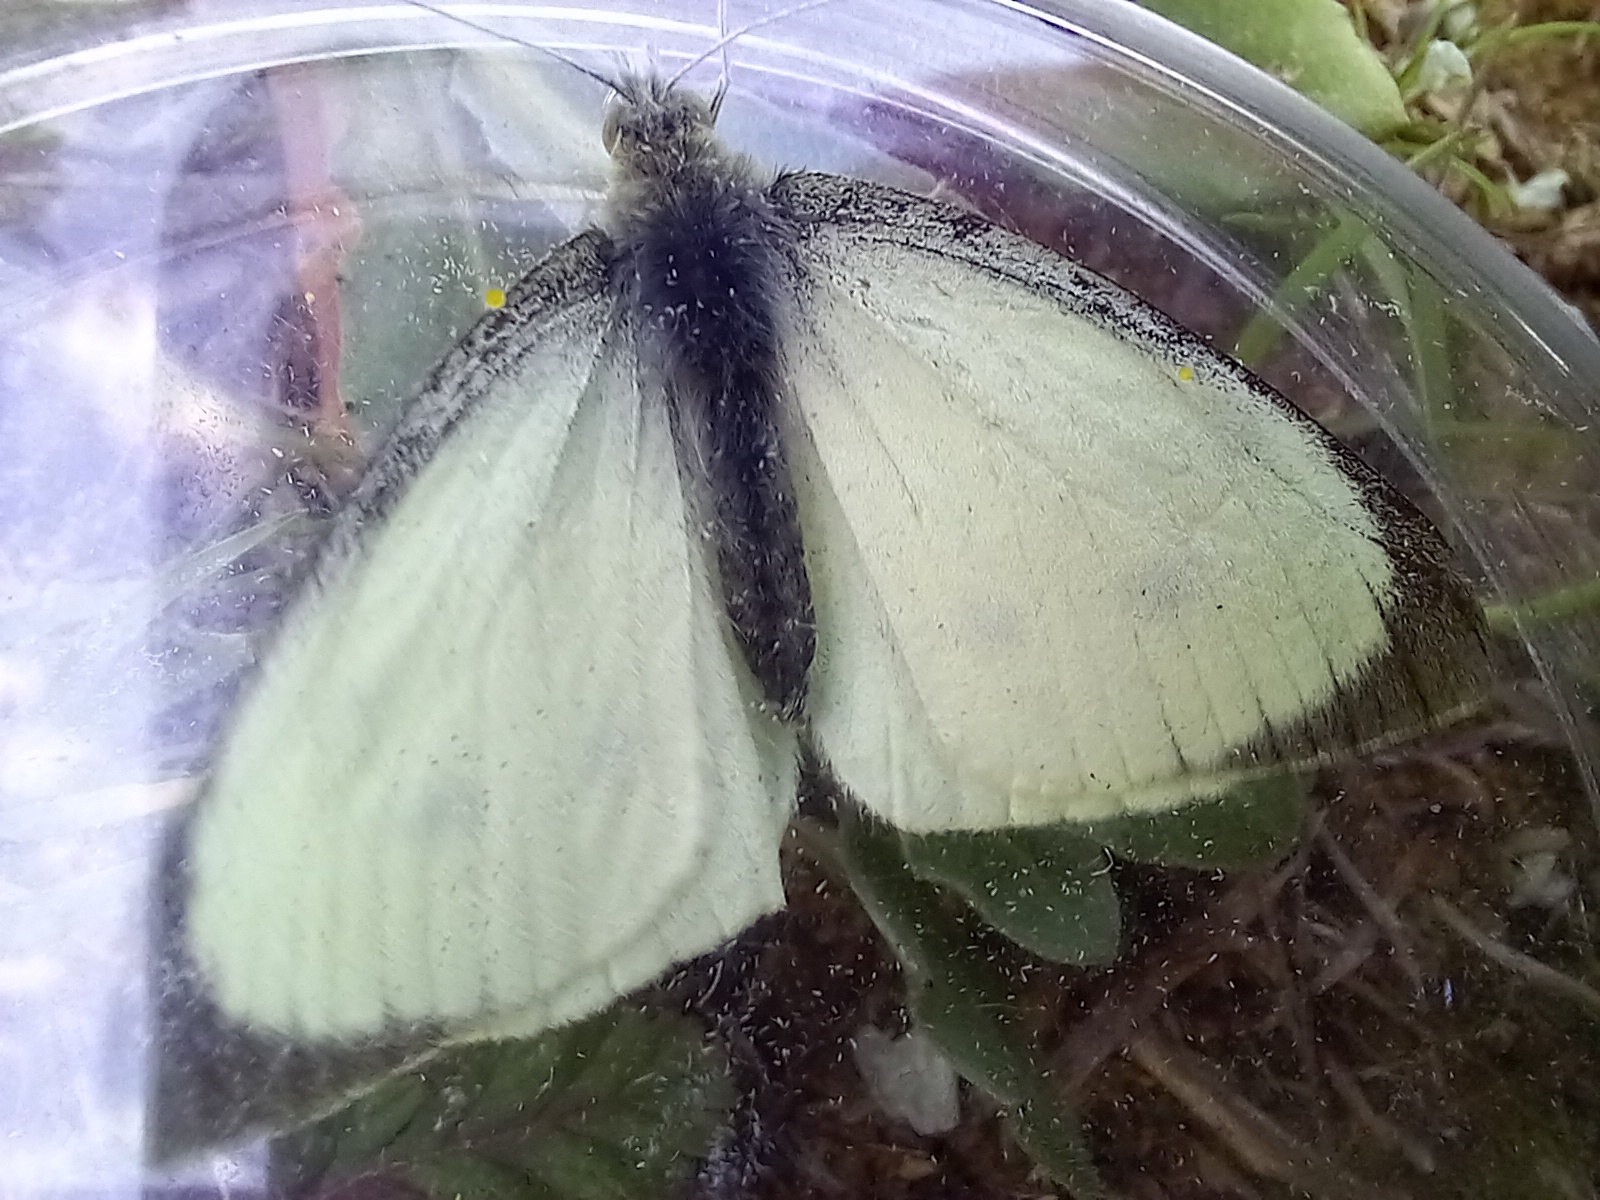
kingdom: Animalia
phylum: Arthropoda
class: Insecta
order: Lepidoptera
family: Pieridae
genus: Pieris
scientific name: Pieris brassicae
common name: Large white
